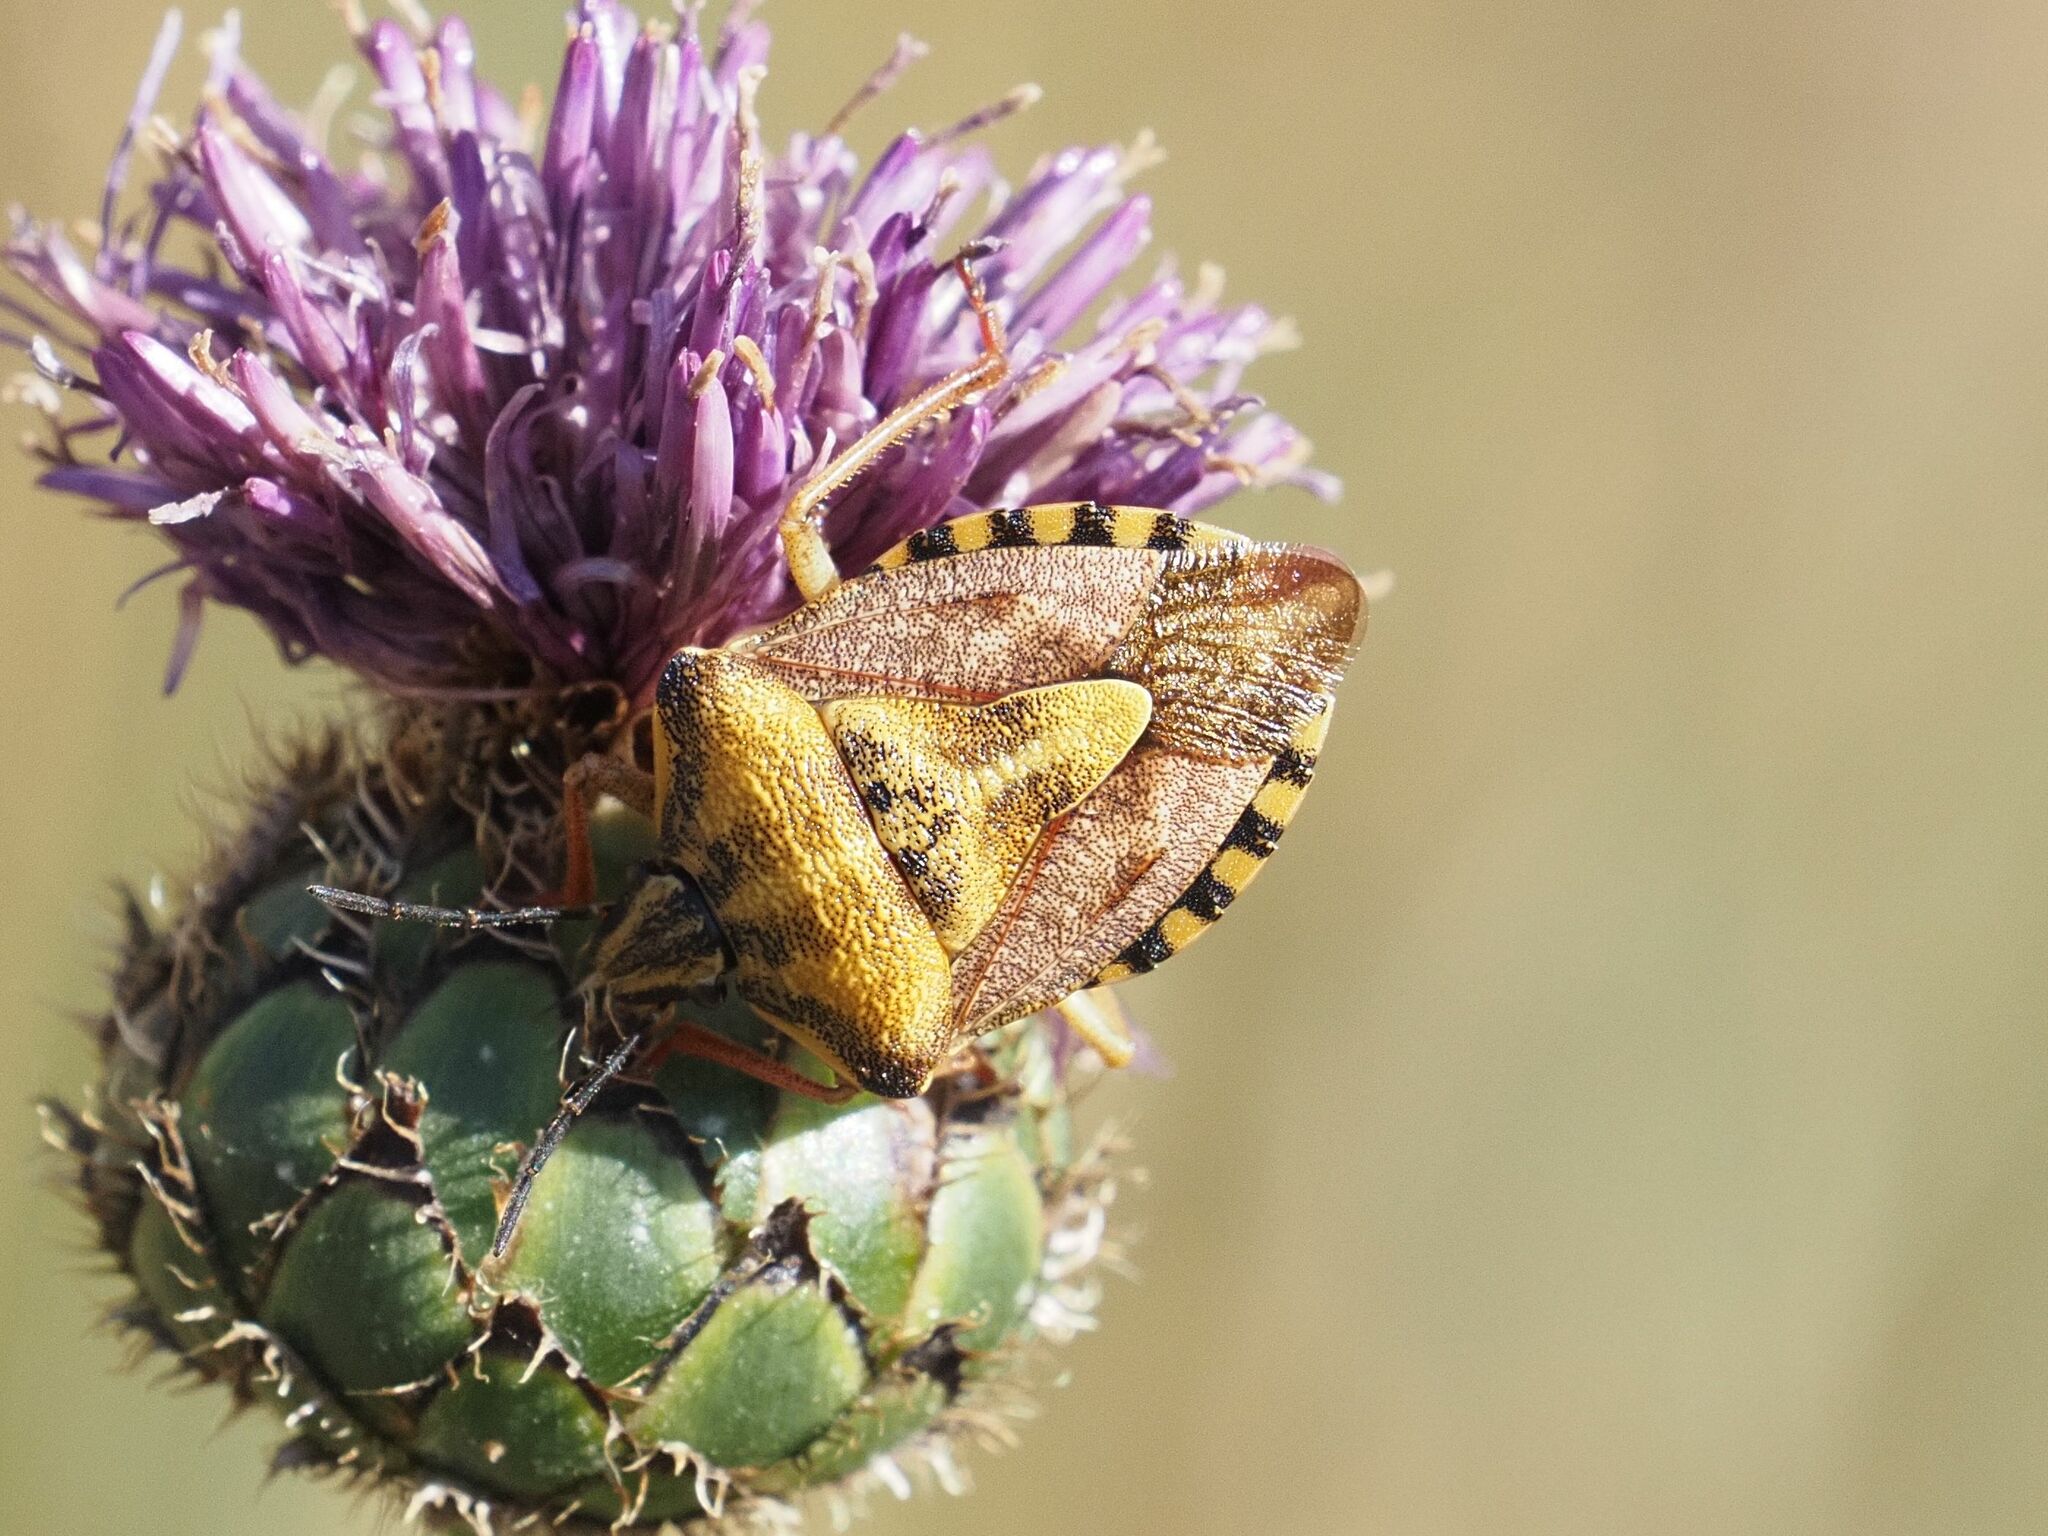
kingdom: Animalia
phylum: Arthropoda
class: Insecta
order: Hemiptera
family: Pentatomidae
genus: Carpocoris
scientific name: Carpocoris purpureipennis
